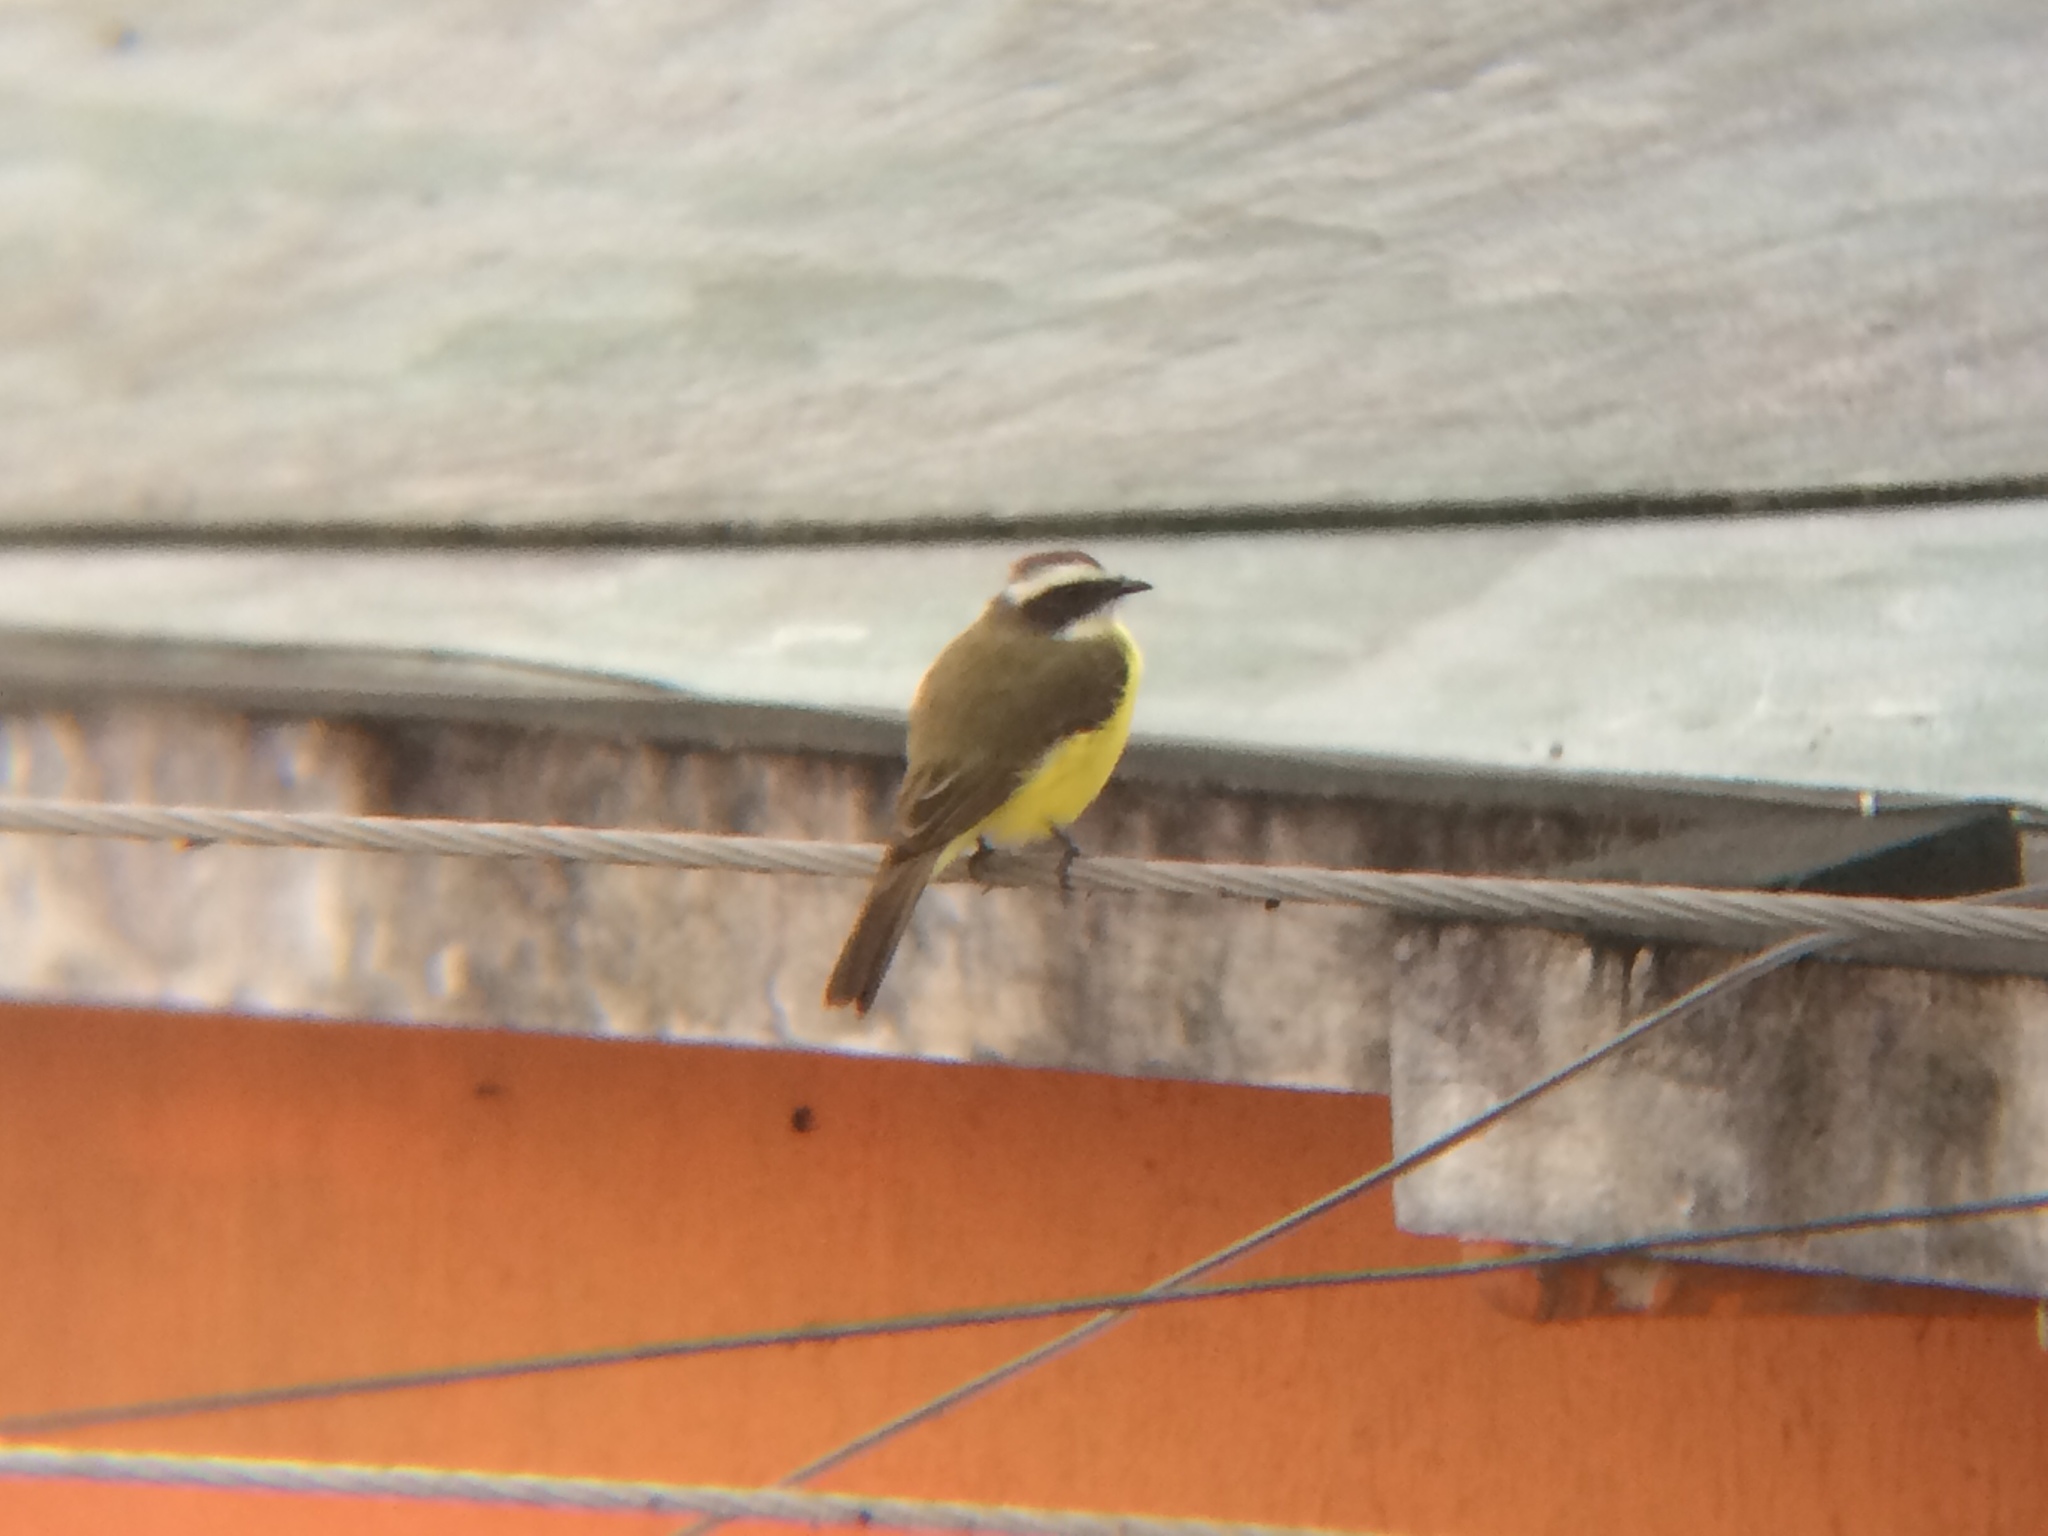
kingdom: Animalia
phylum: Chordata
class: Aves
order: Passeriformes
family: Tyrannidae
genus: Myiozetetes
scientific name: Myiozetetes similis
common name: Social flycatcher
